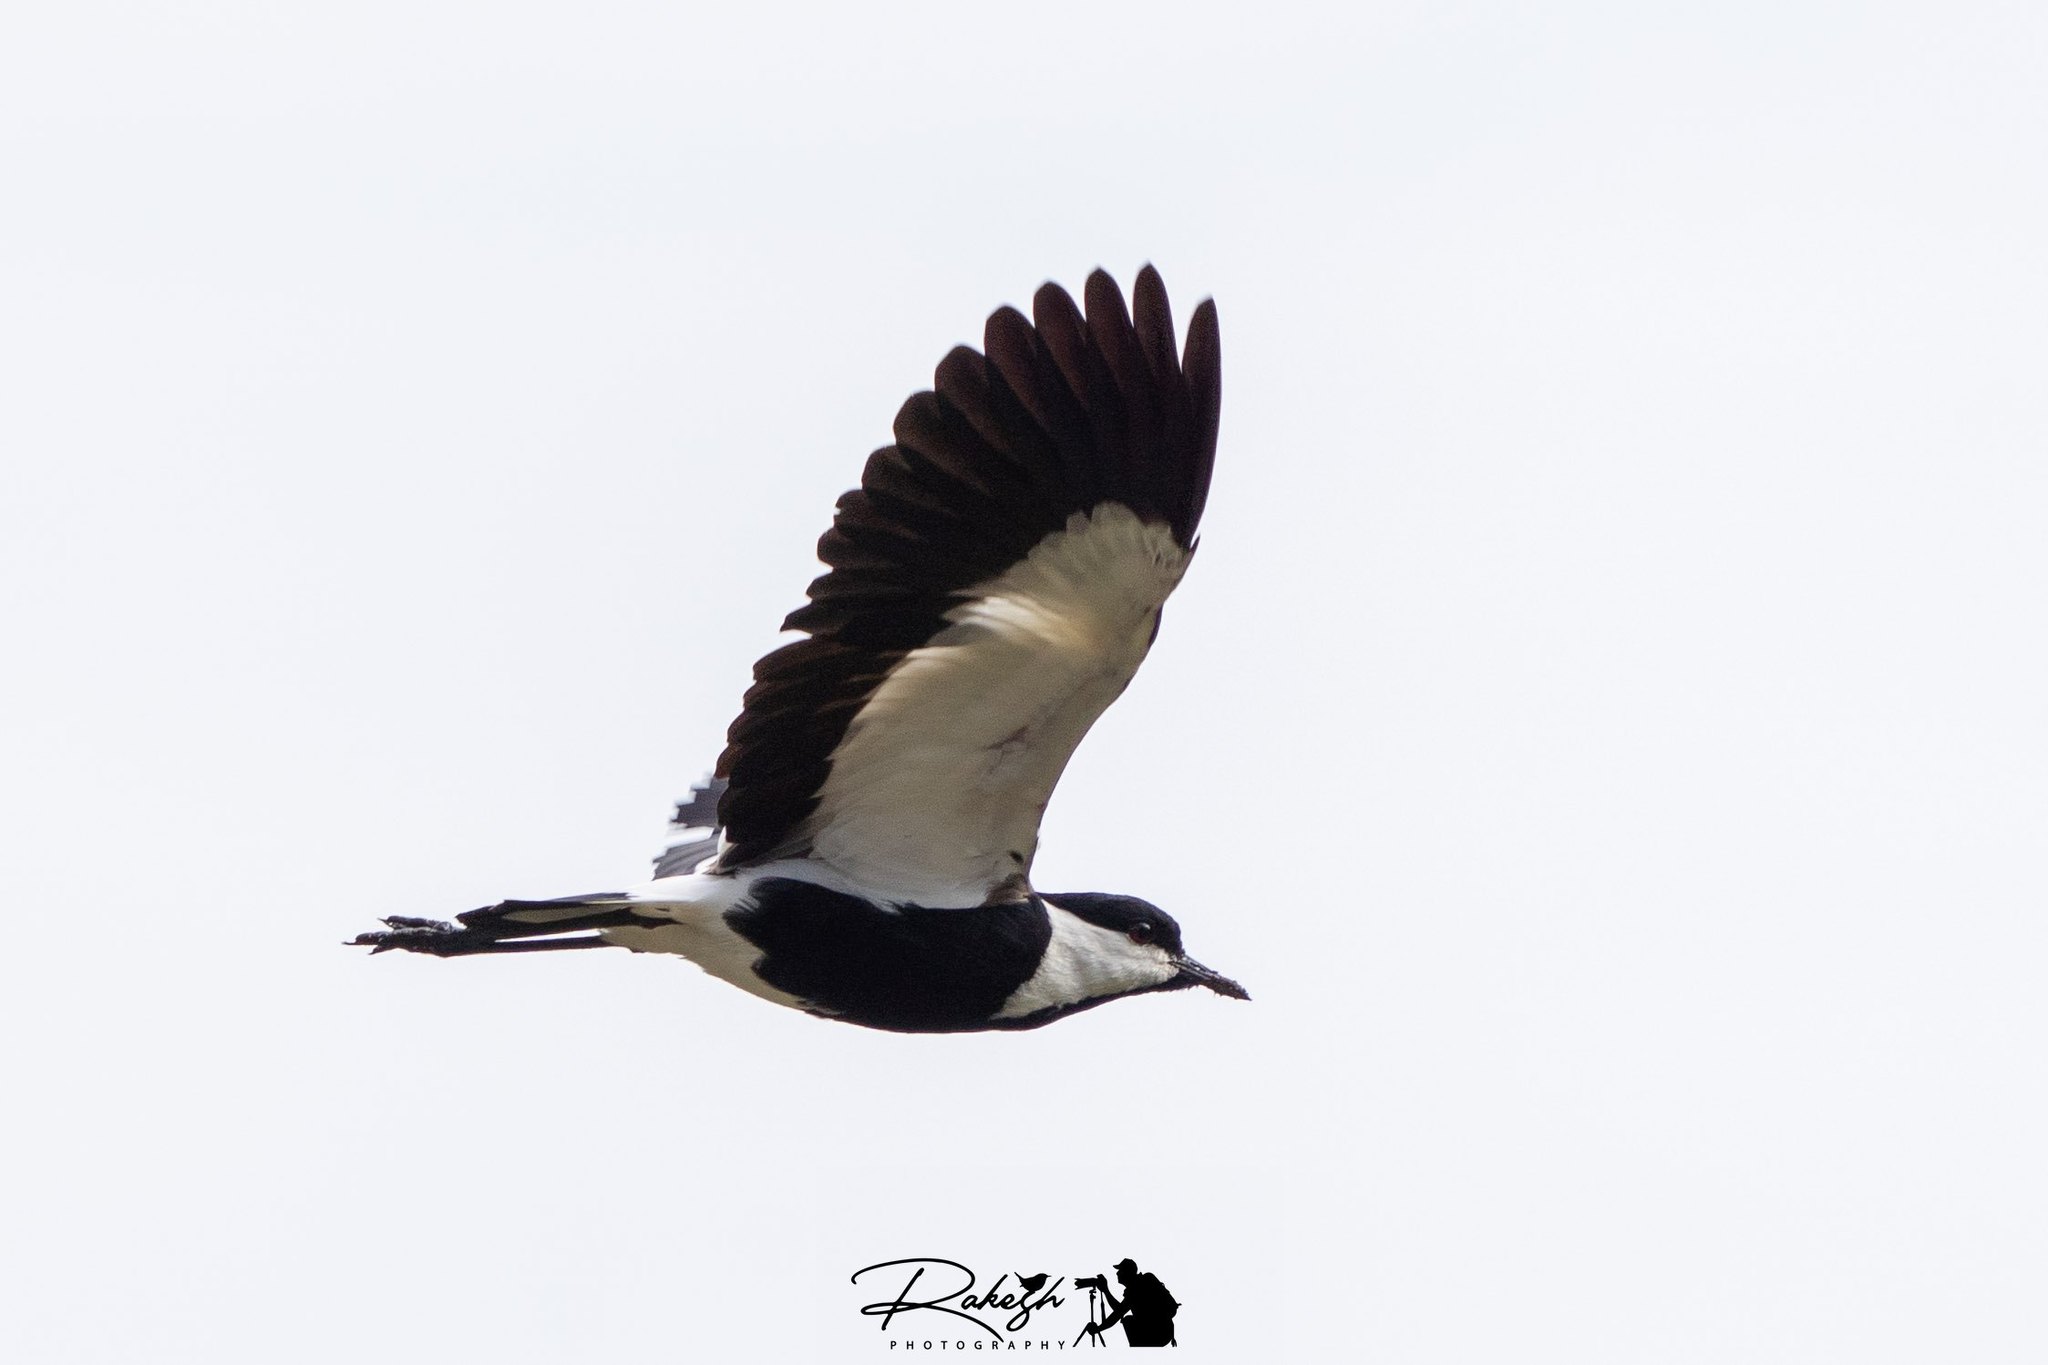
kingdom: Animalia
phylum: Chordata
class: Aves
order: Charadriiformes
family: Charadriidae
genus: Vanellus
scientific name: Vanellus spinosus
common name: Spur-winged lapwing
